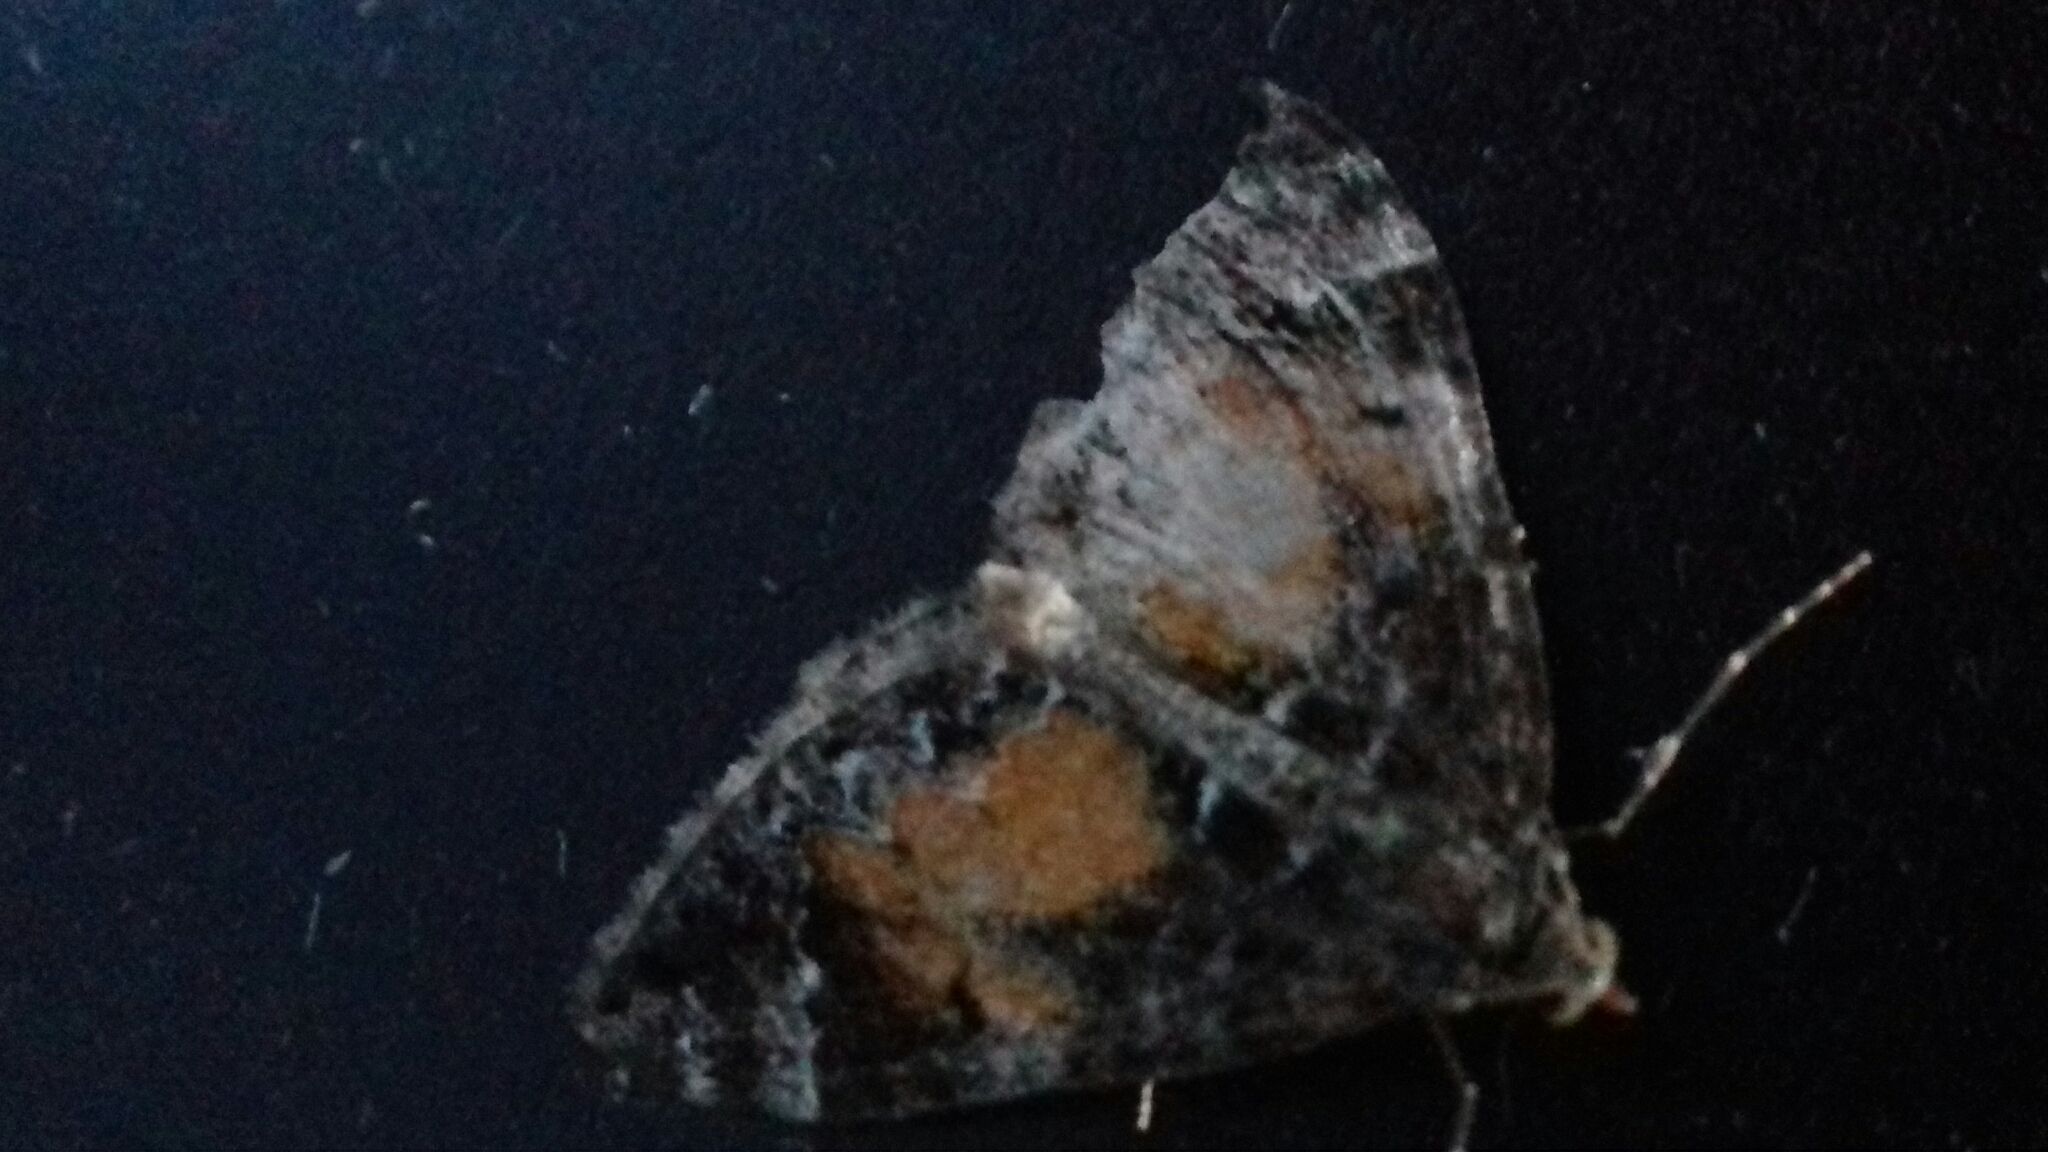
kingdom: Animalia
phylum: Arthropoda
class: Insecta
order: Lepidoptera
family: Geometridae
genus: Dysstroma
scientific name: Dysstroma truncata
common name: Common marbled carpet
